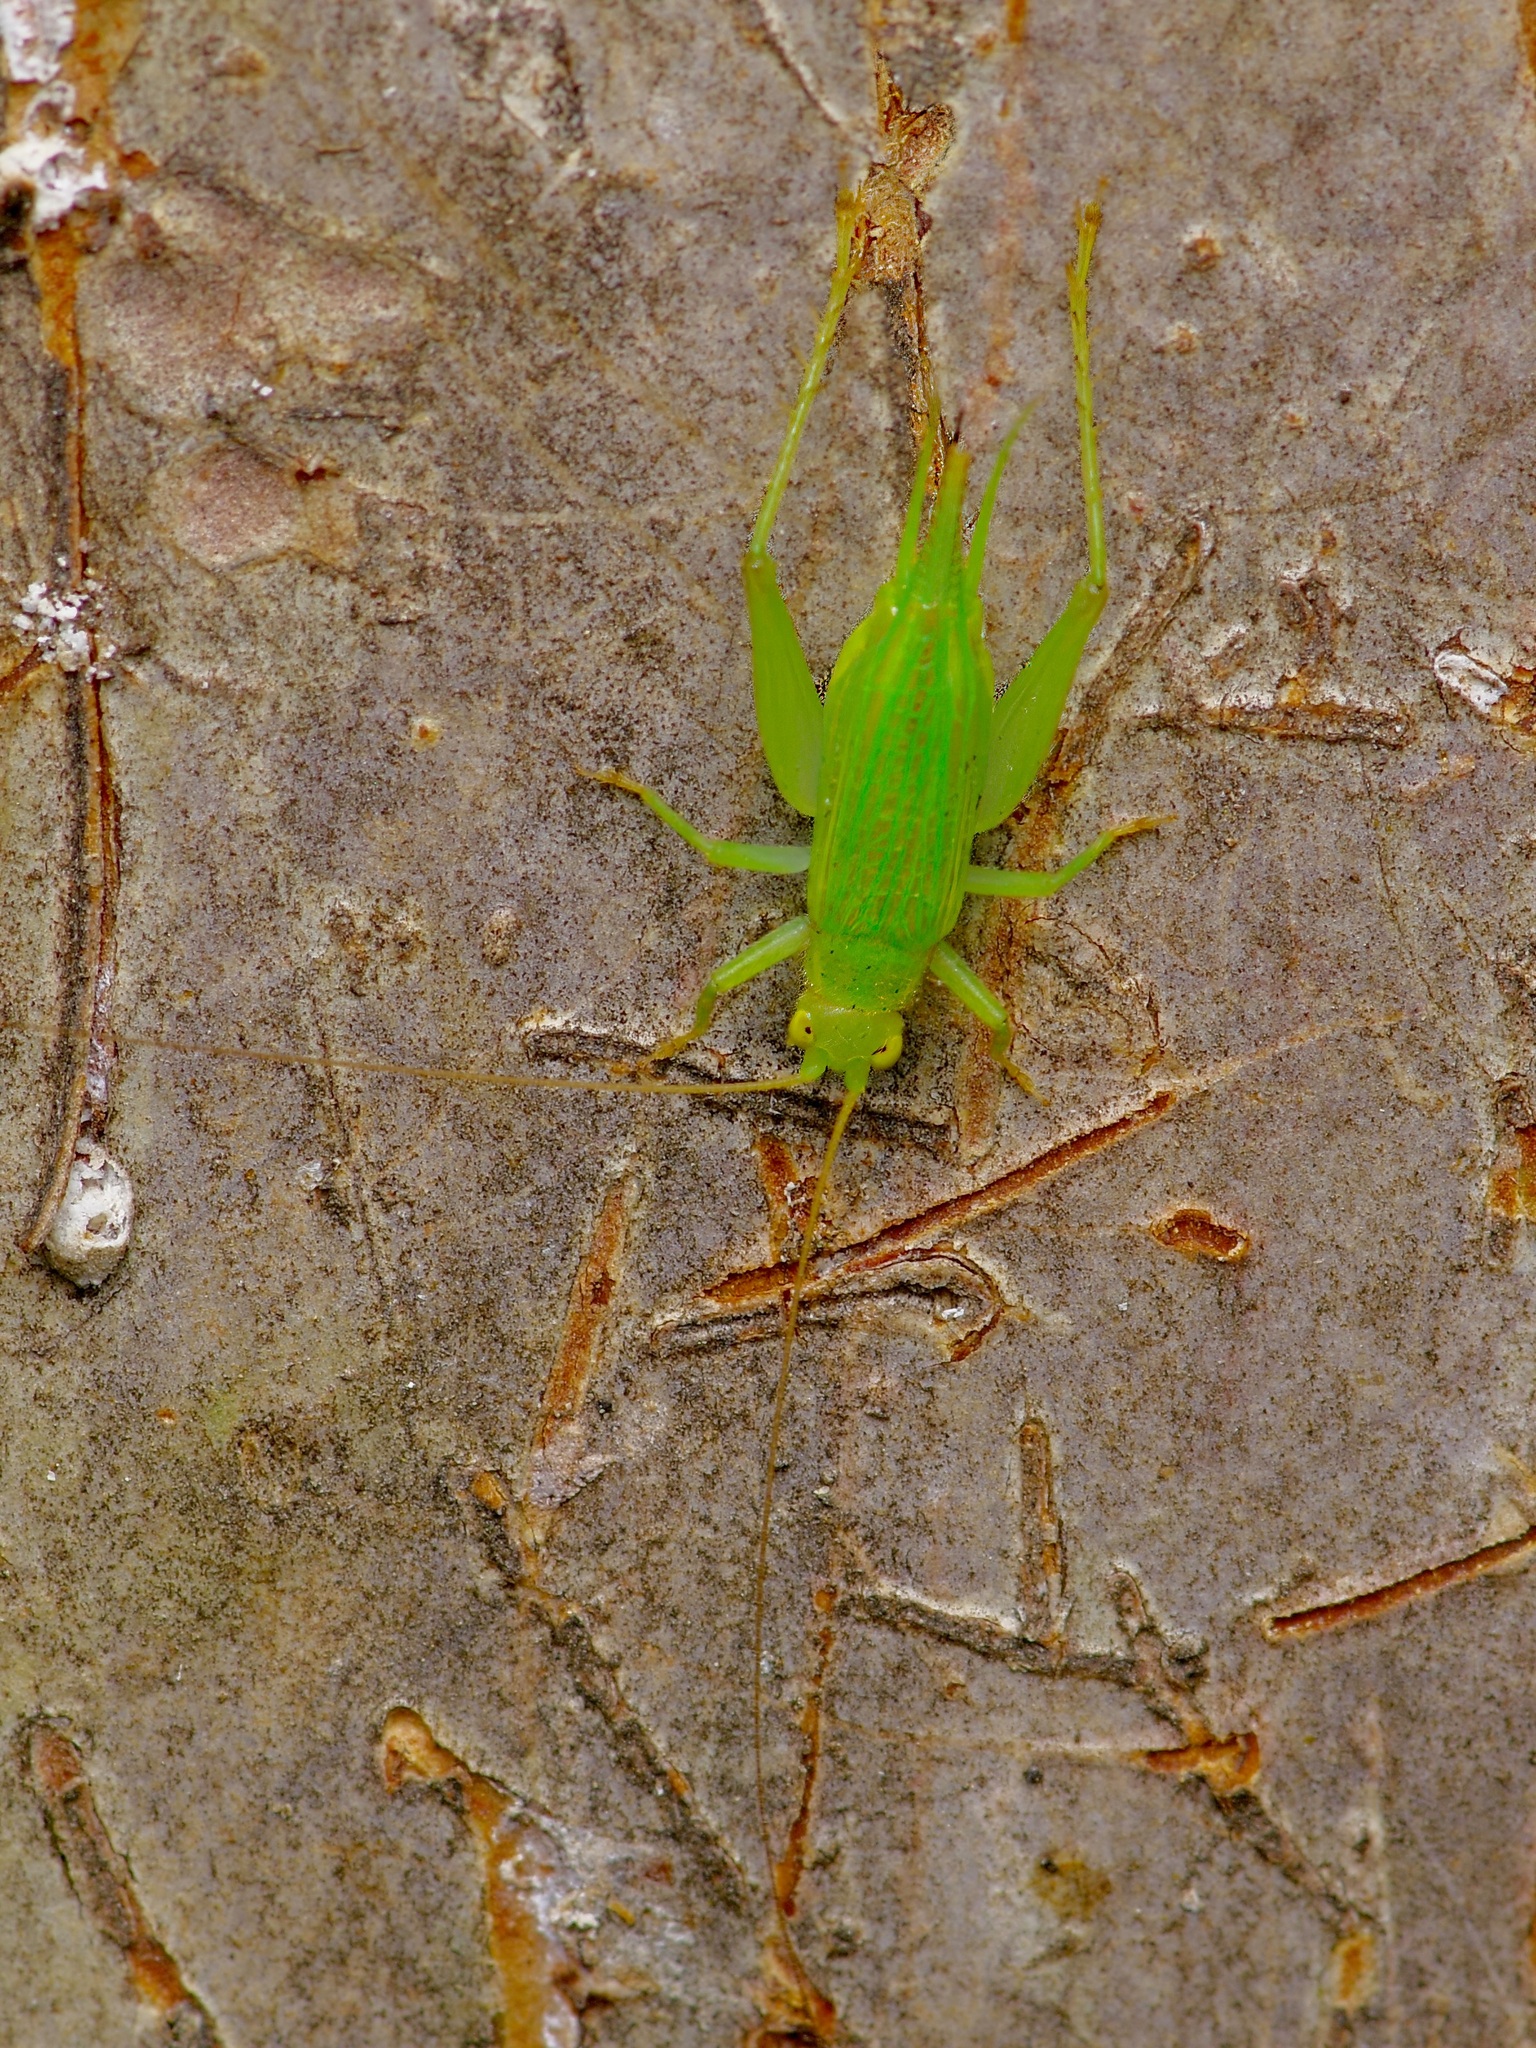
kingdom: Animalia
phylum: Arthropoda
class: Insecta
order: Orthoptera
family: Trigonidiidae
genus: Cyrtoxipha
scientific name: Cyrtoxipha columbiana
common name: Columbian trig
